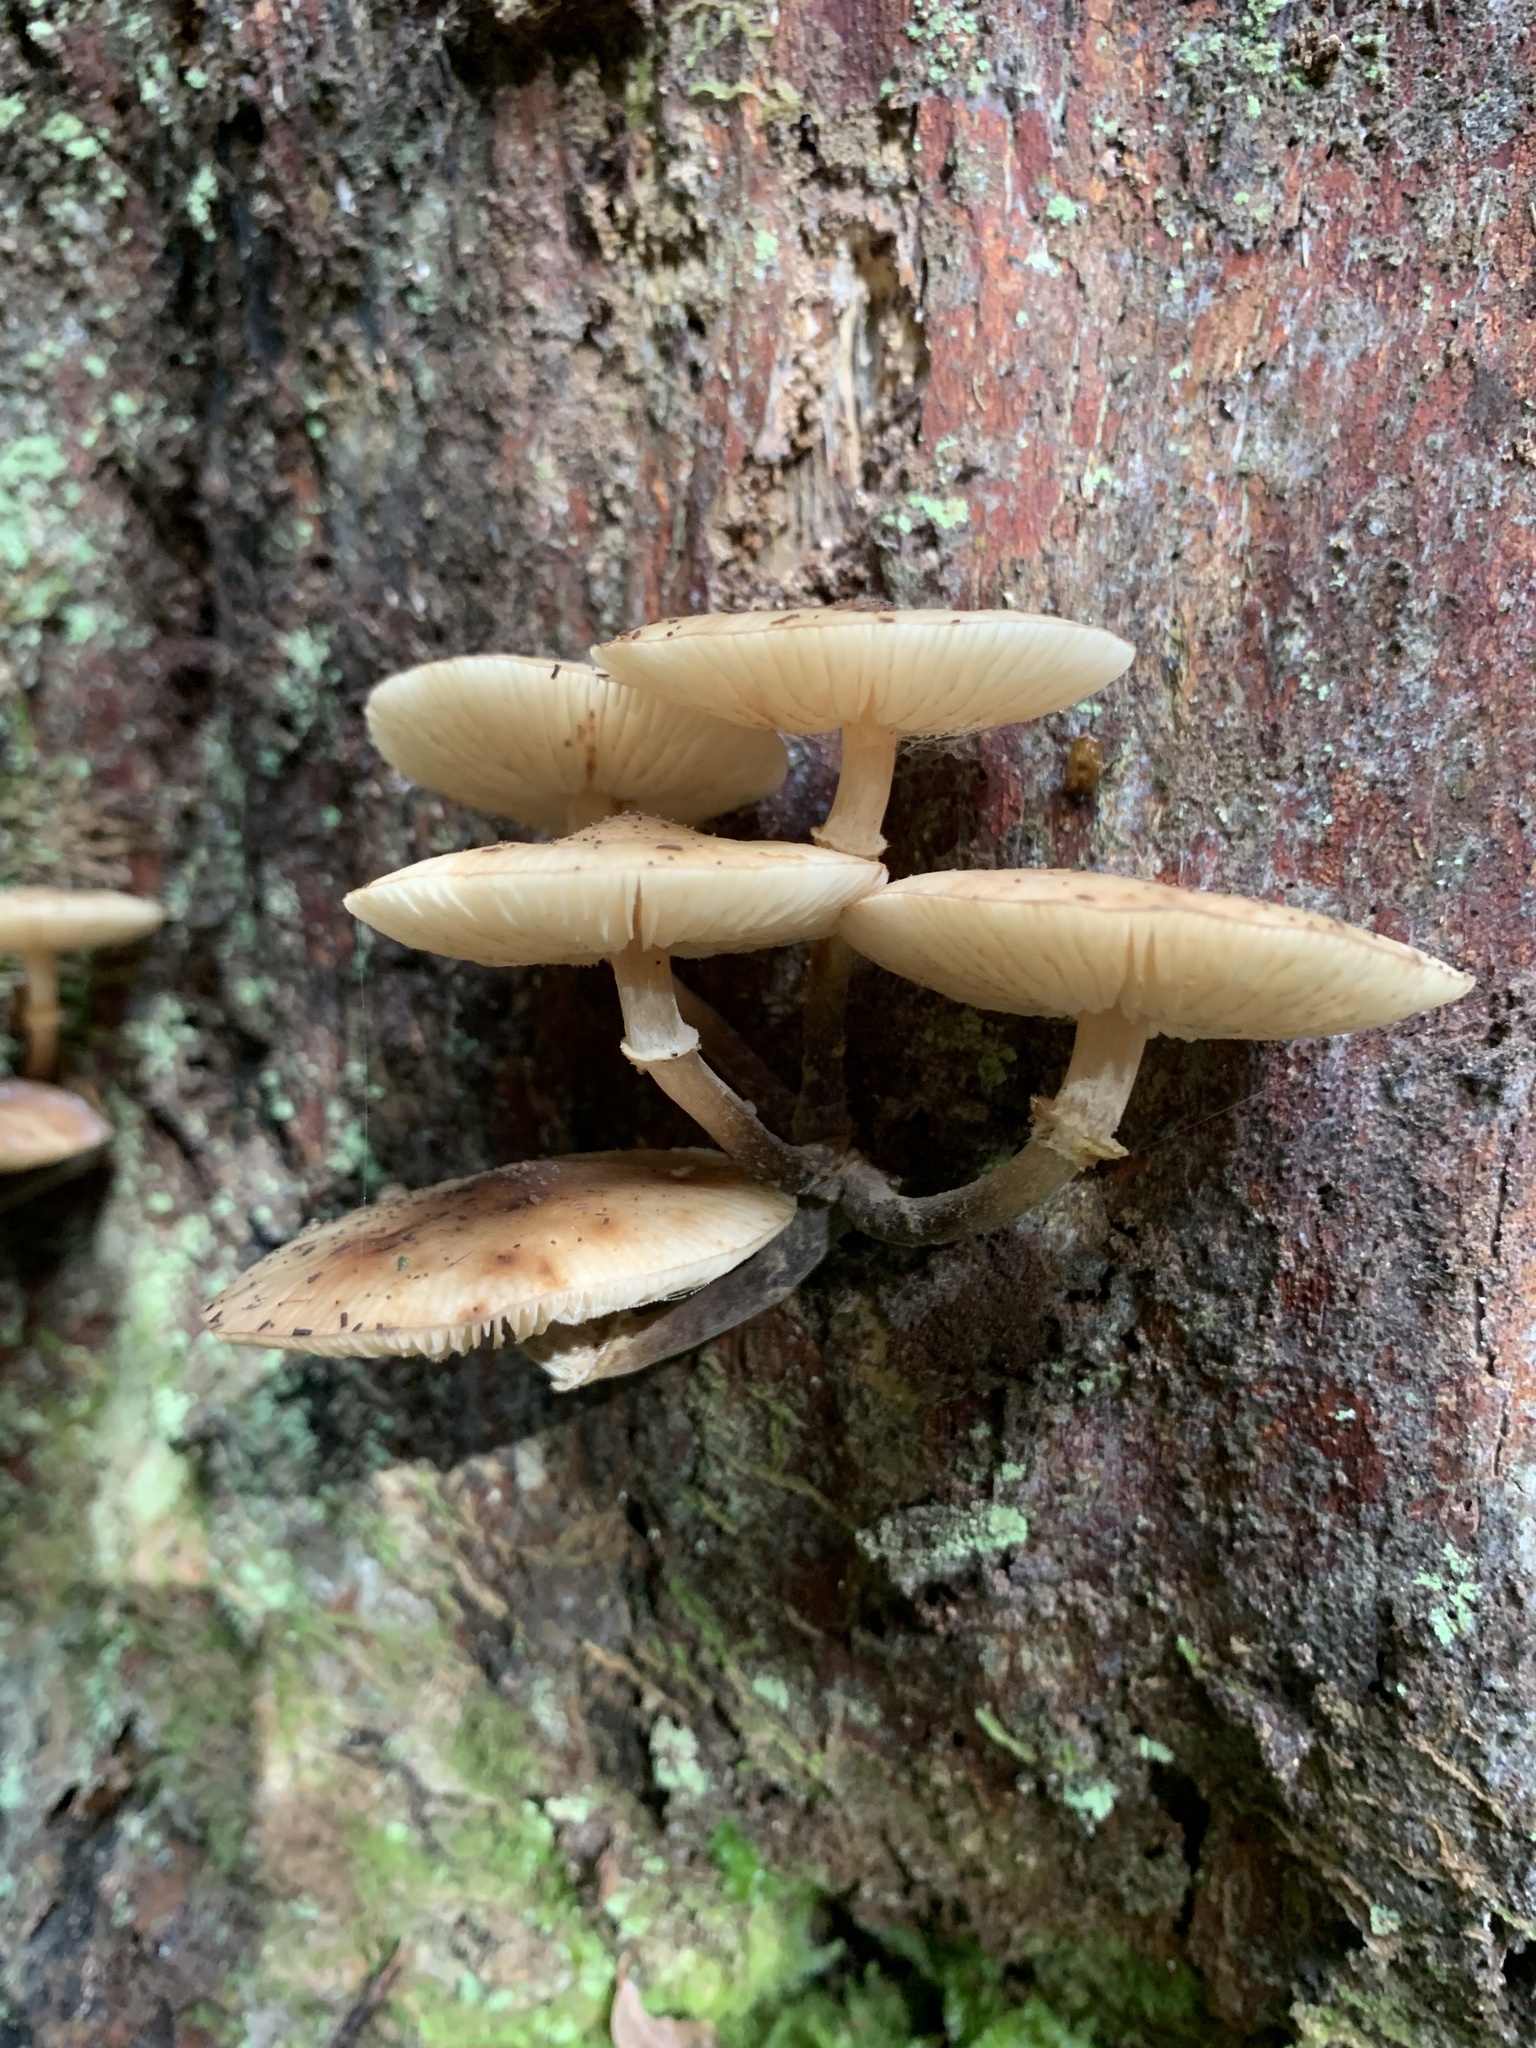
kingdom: Fungi
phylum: Basidiomycota
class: Agaricomycetes
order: Agaricales
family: Physalacriaceae
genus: Armillaria
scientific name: Armillaria novae-zelandiae
